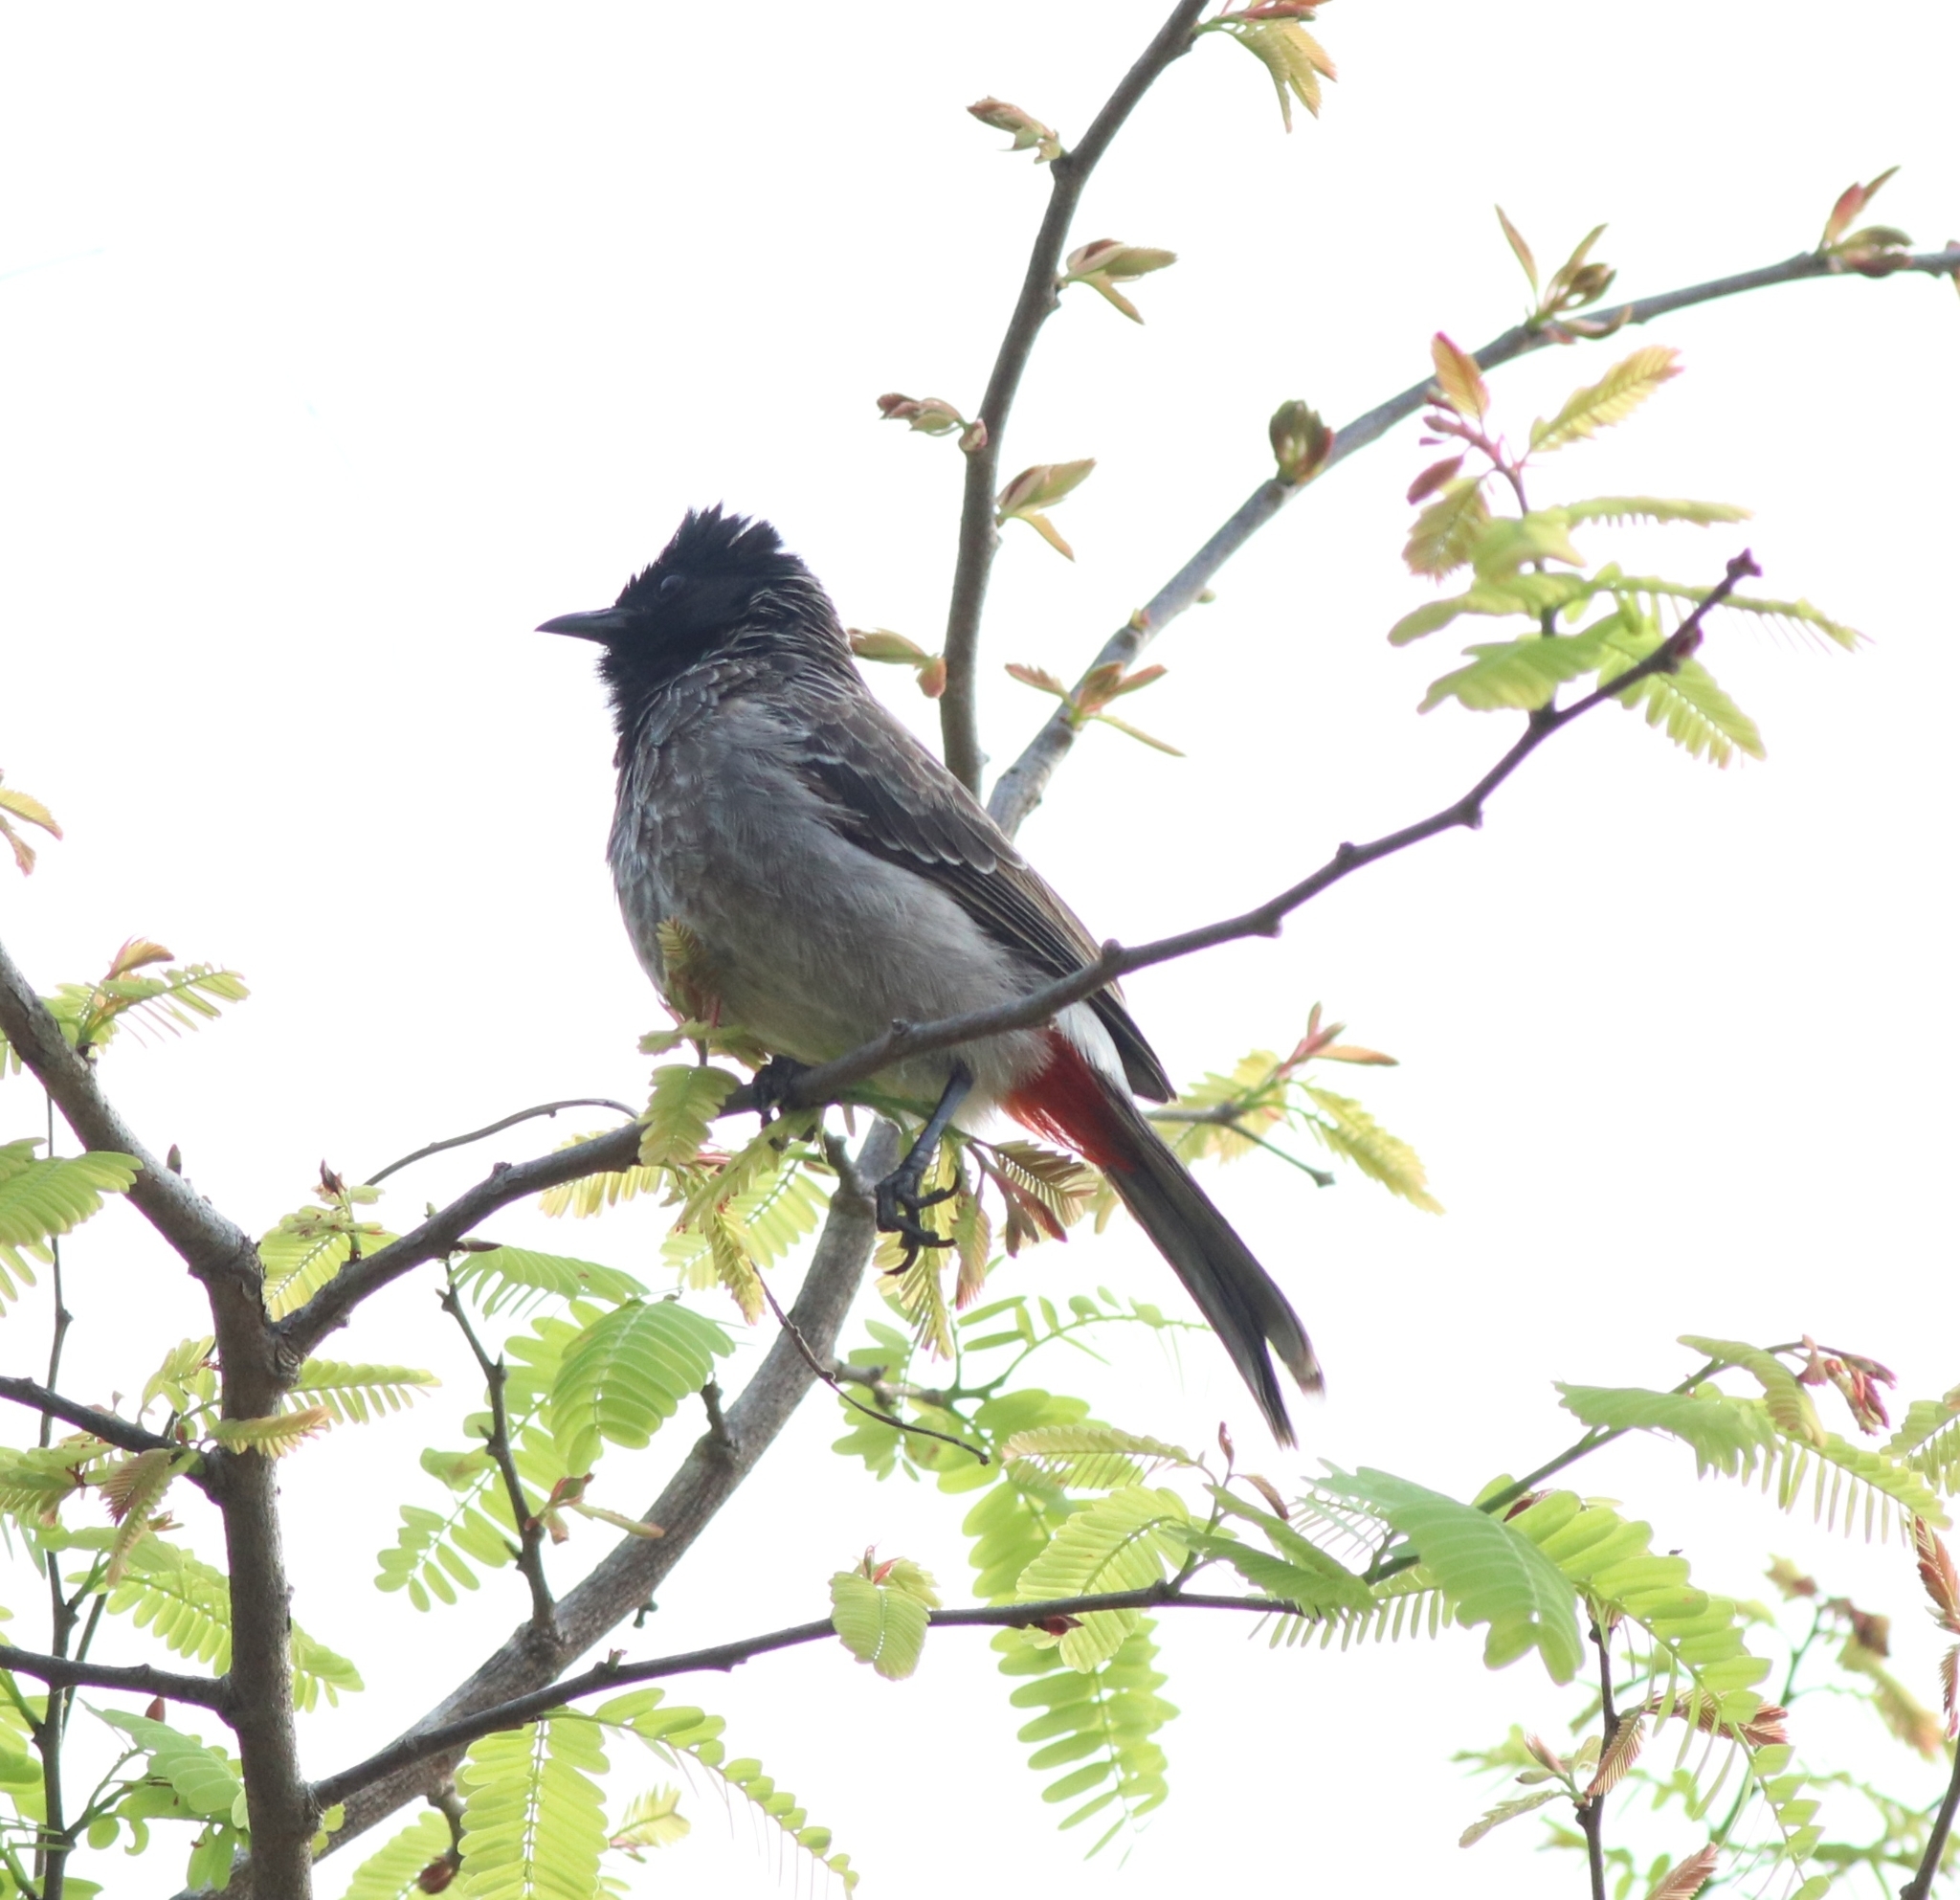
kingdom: Animalia
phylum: Chordata
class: Aves
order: Passeriformes
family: Pycnonotidae
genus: Pycnonotus
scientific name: Pycnonotus cafer
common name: Red-vented bulbul
